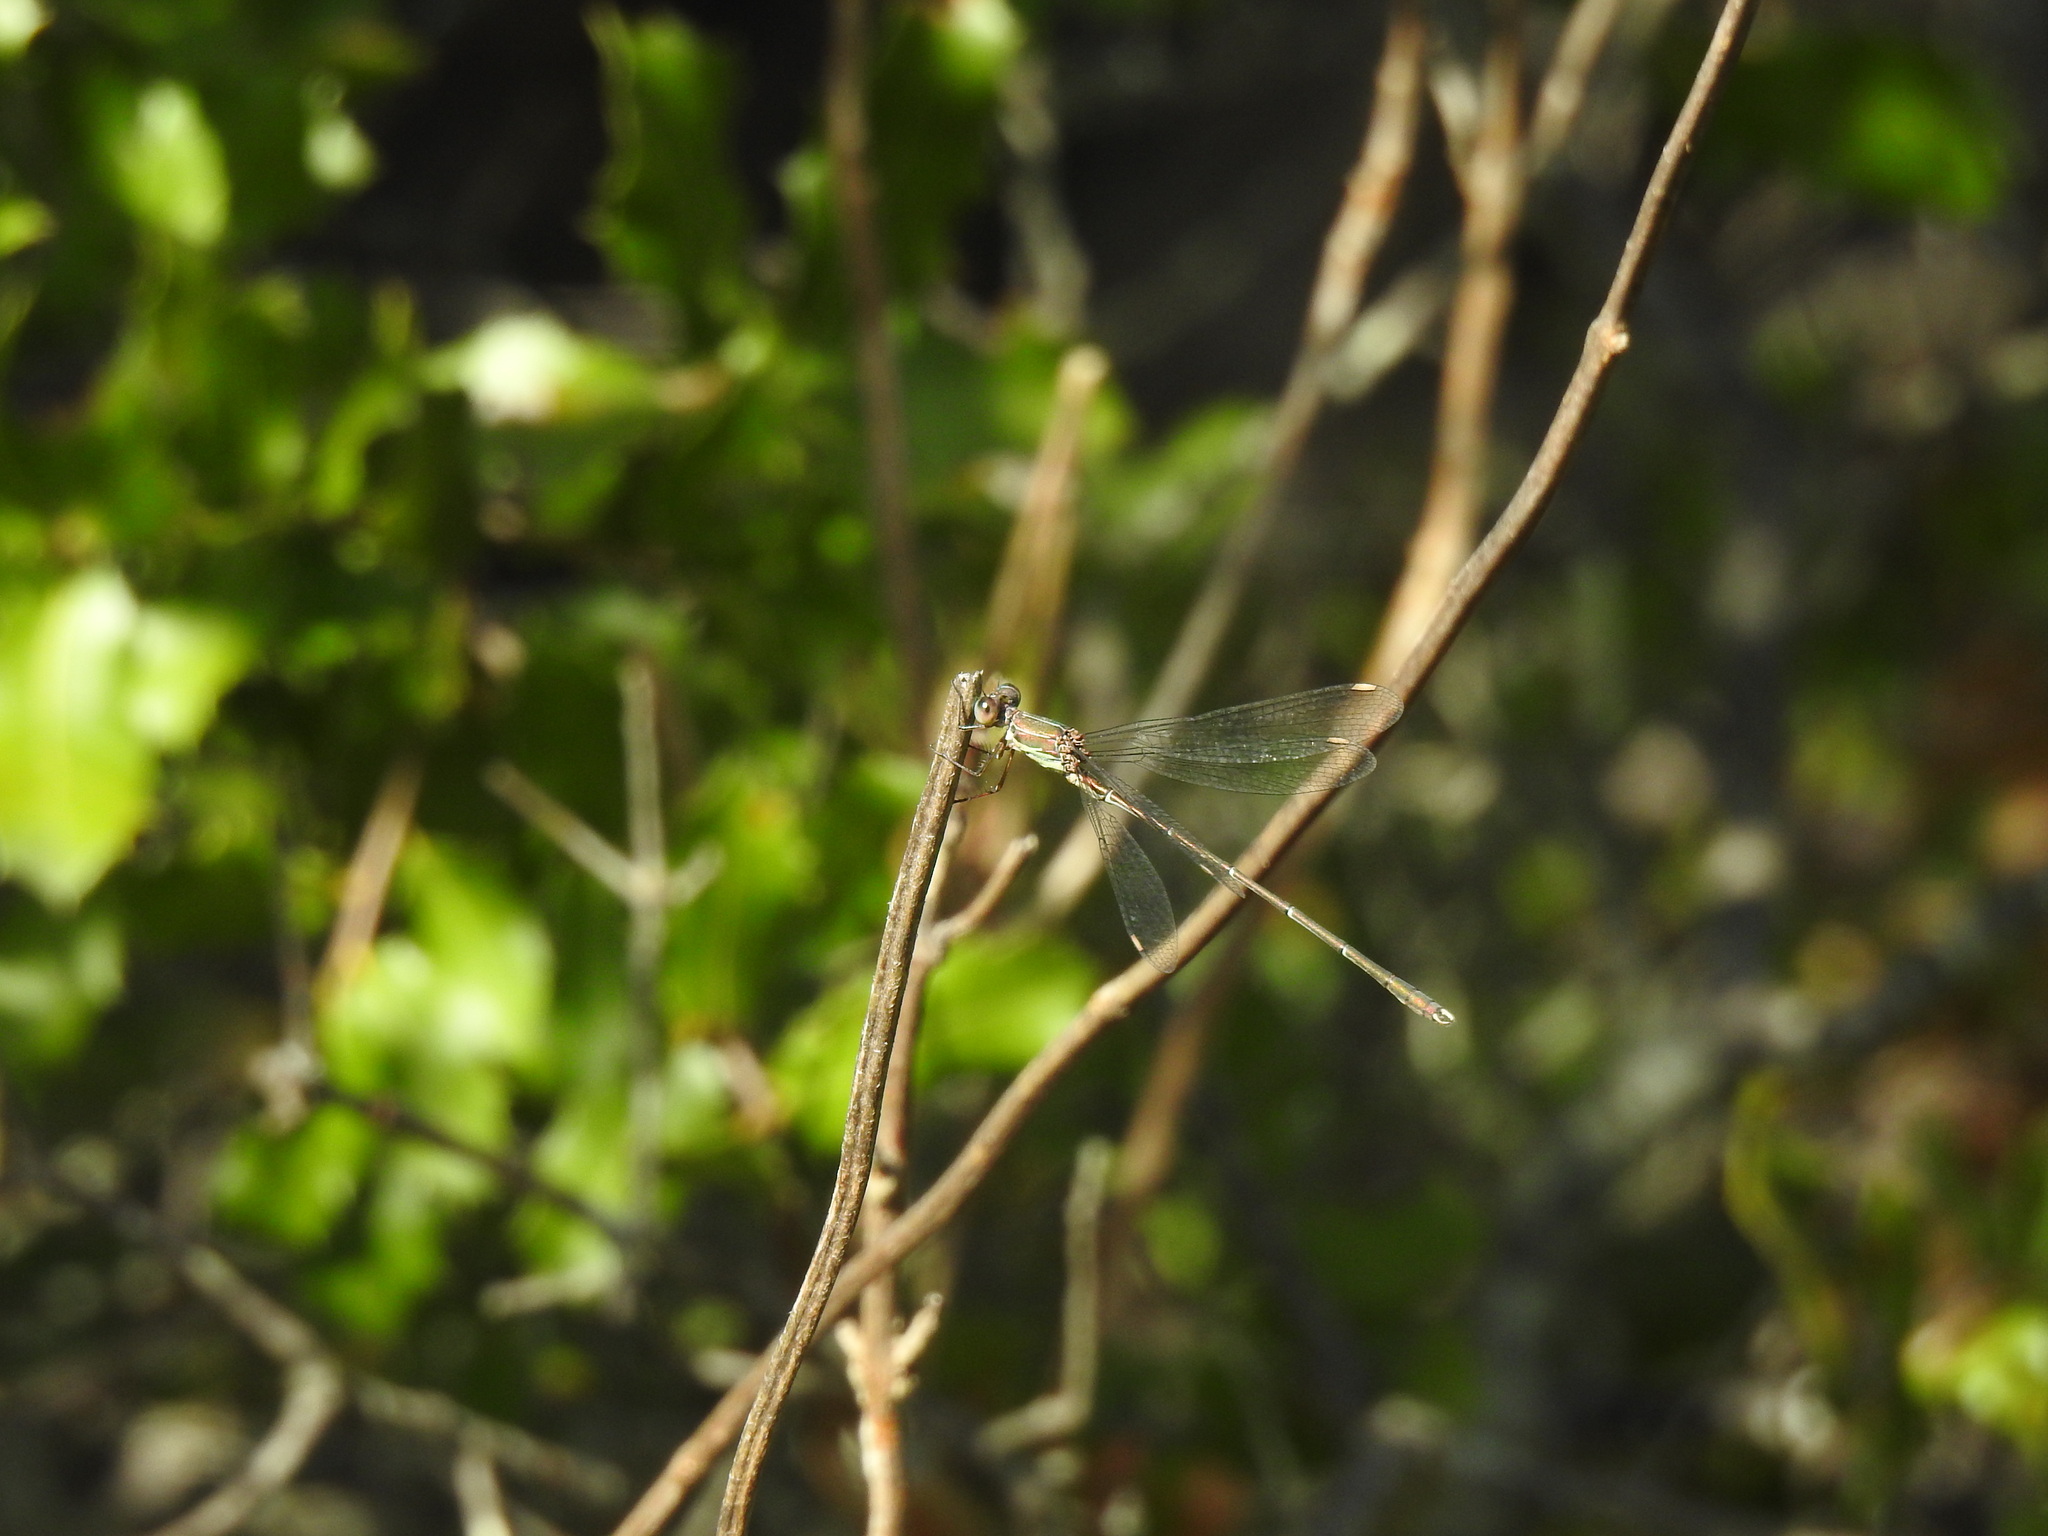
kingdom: Animalia
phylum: Arthropoda
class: Insecta
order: Odonata
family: Lestidae
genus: Chalcolestes
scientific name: Chalcolestes viridis
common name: Green emerald damselfly
